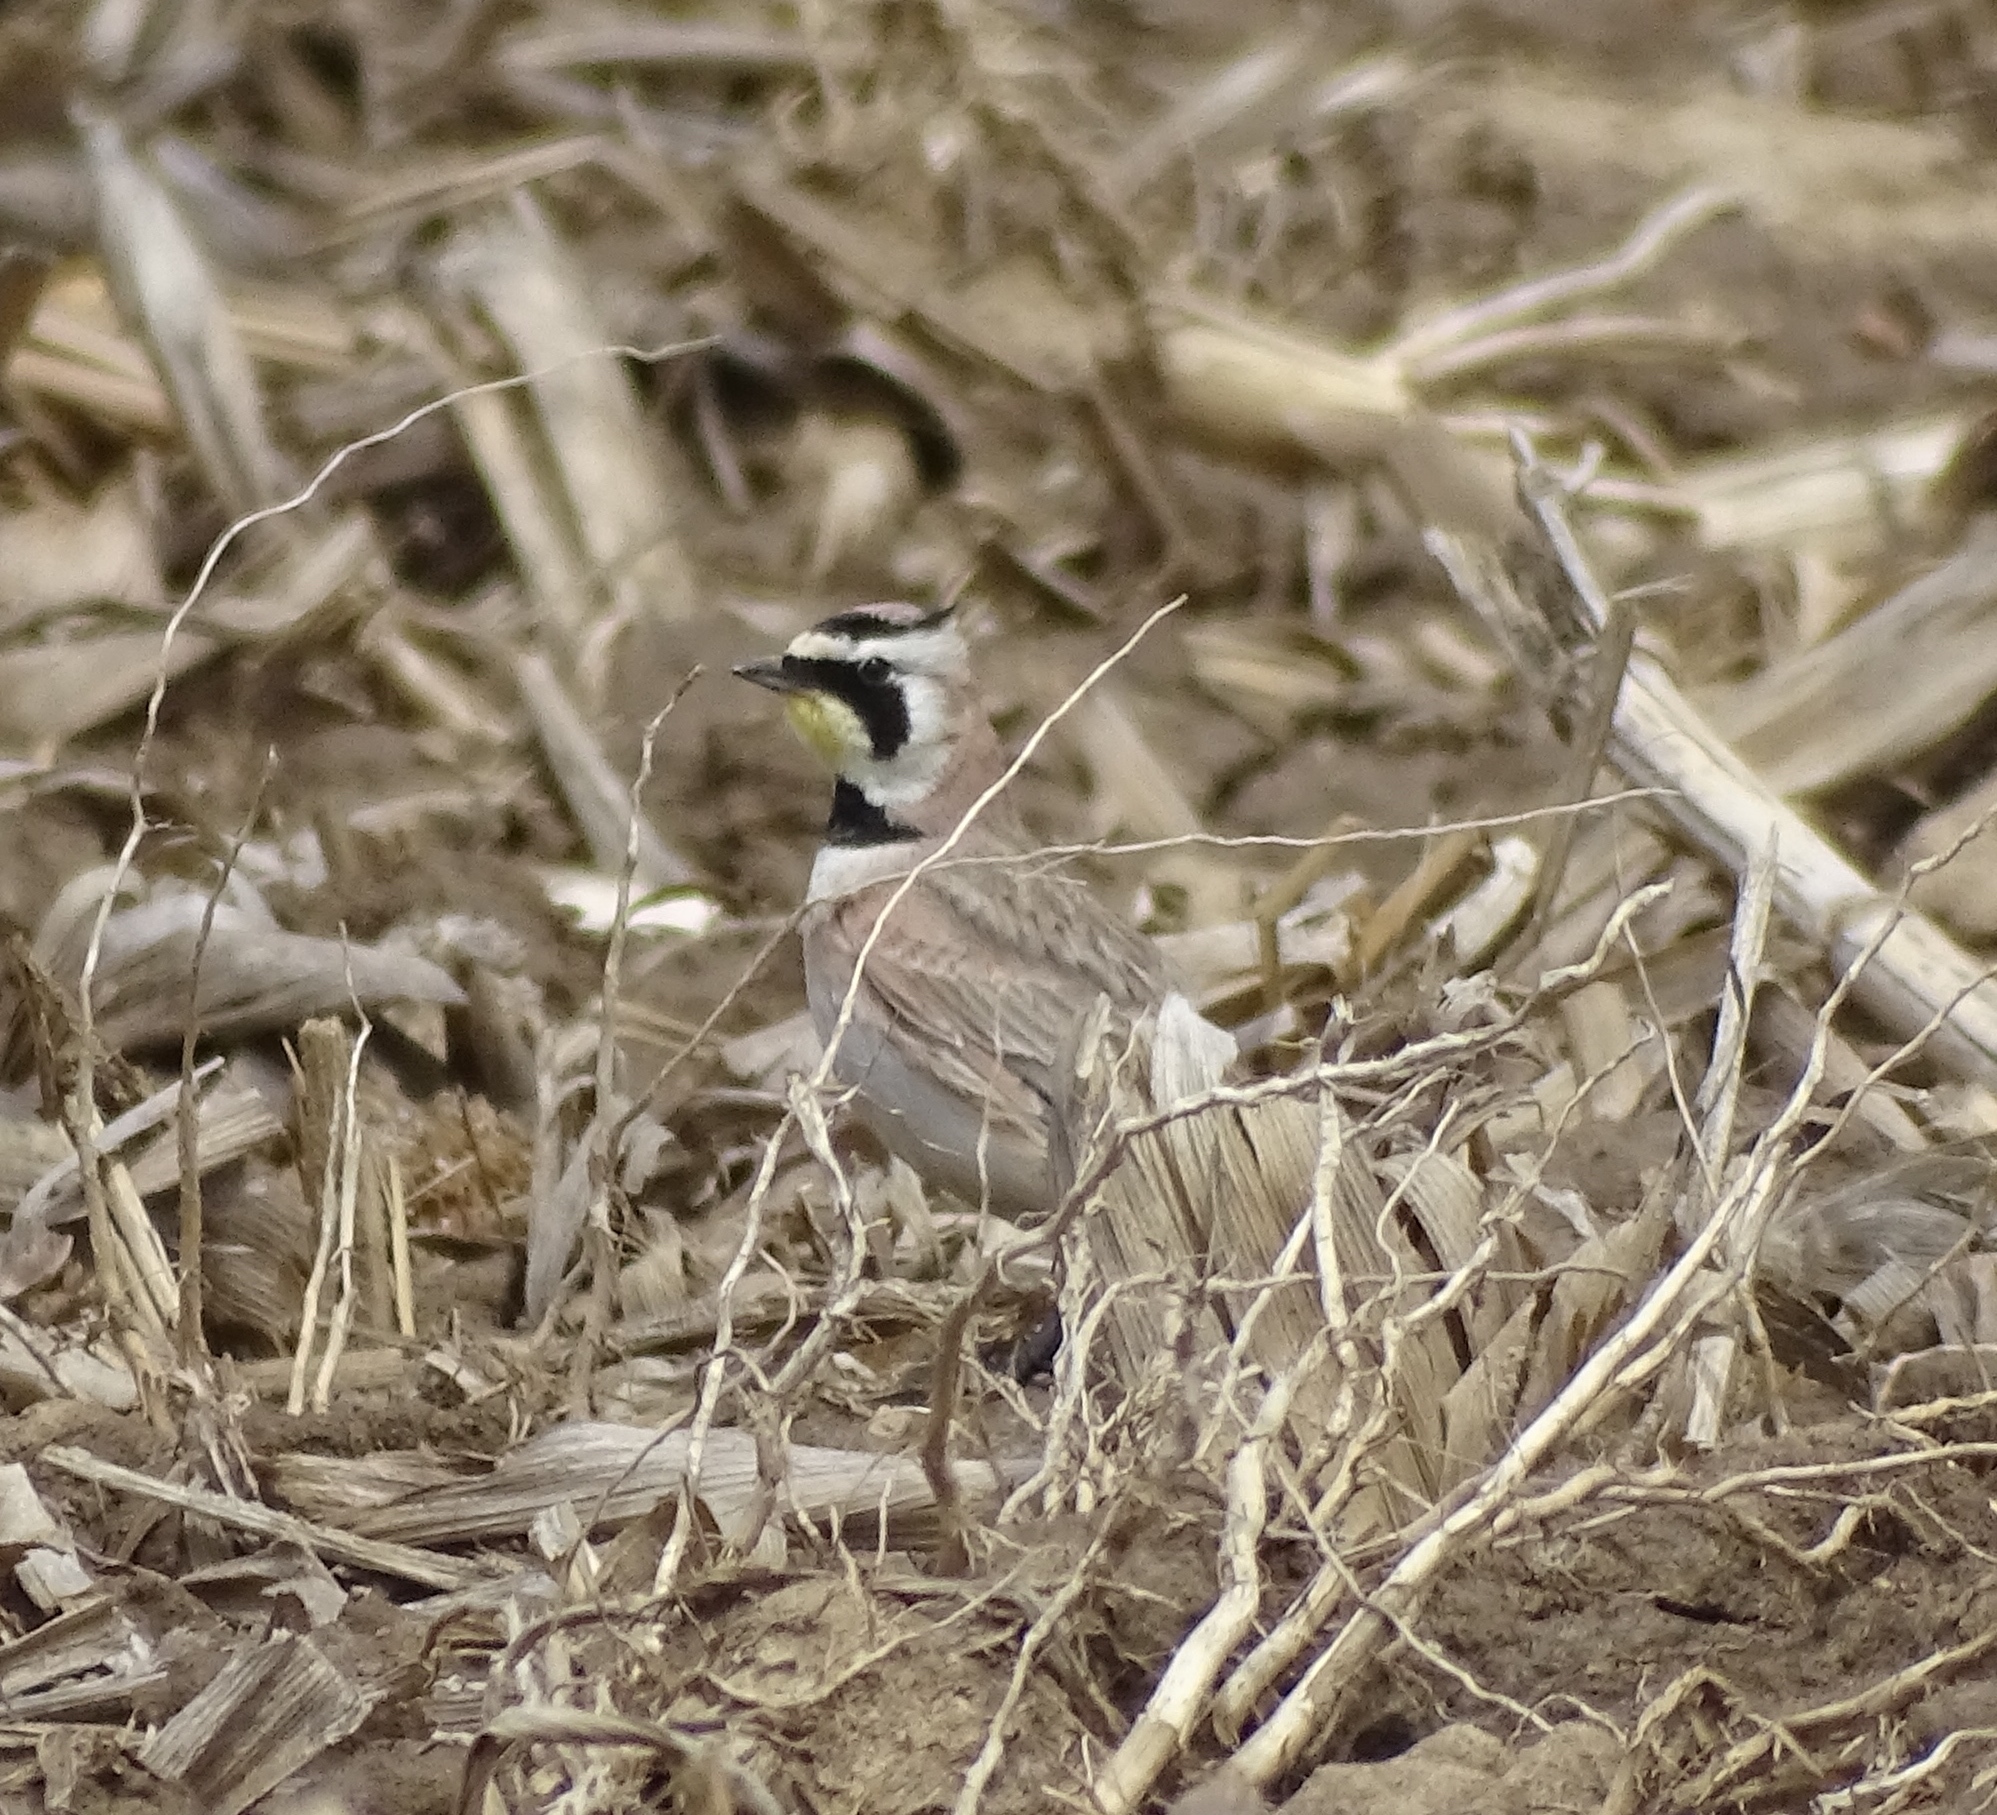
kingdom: Animalia
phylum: Chordata
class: Aves
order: Passeriformes
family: Alaudidae
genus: Eremophila
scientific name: Eremophila alpestris
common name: Horned lark
